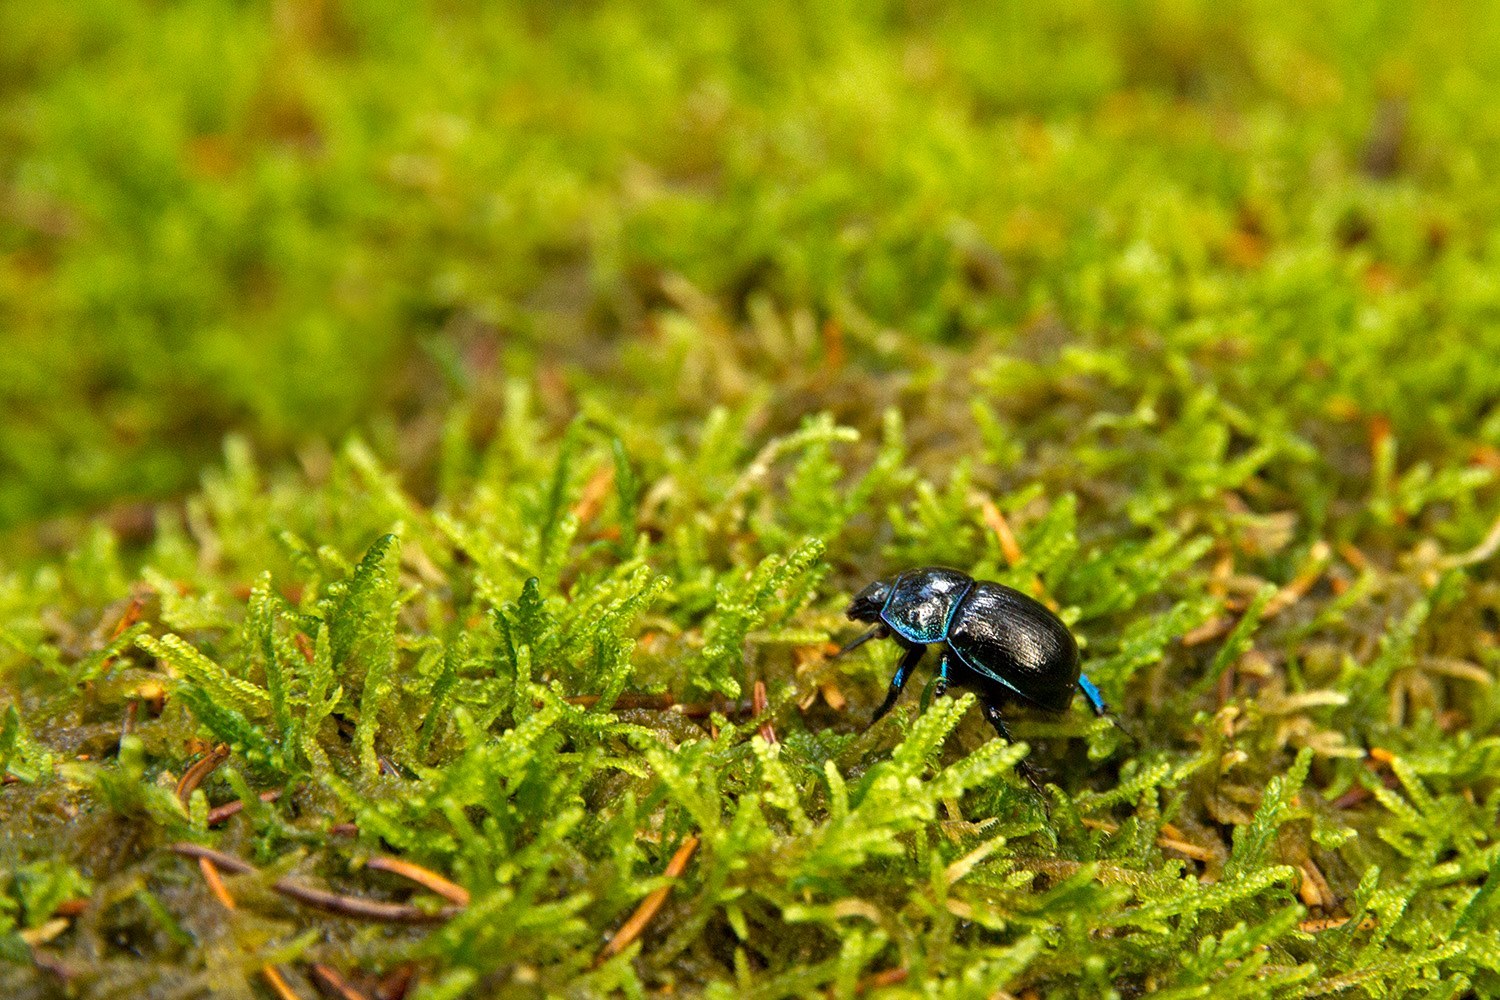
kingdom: Animalia
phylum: Arthropoda
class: Insecta
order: Coleoptera
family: Geotrupidae
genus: Anoplotrupes
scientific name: Anoplotrupes stercorosus
